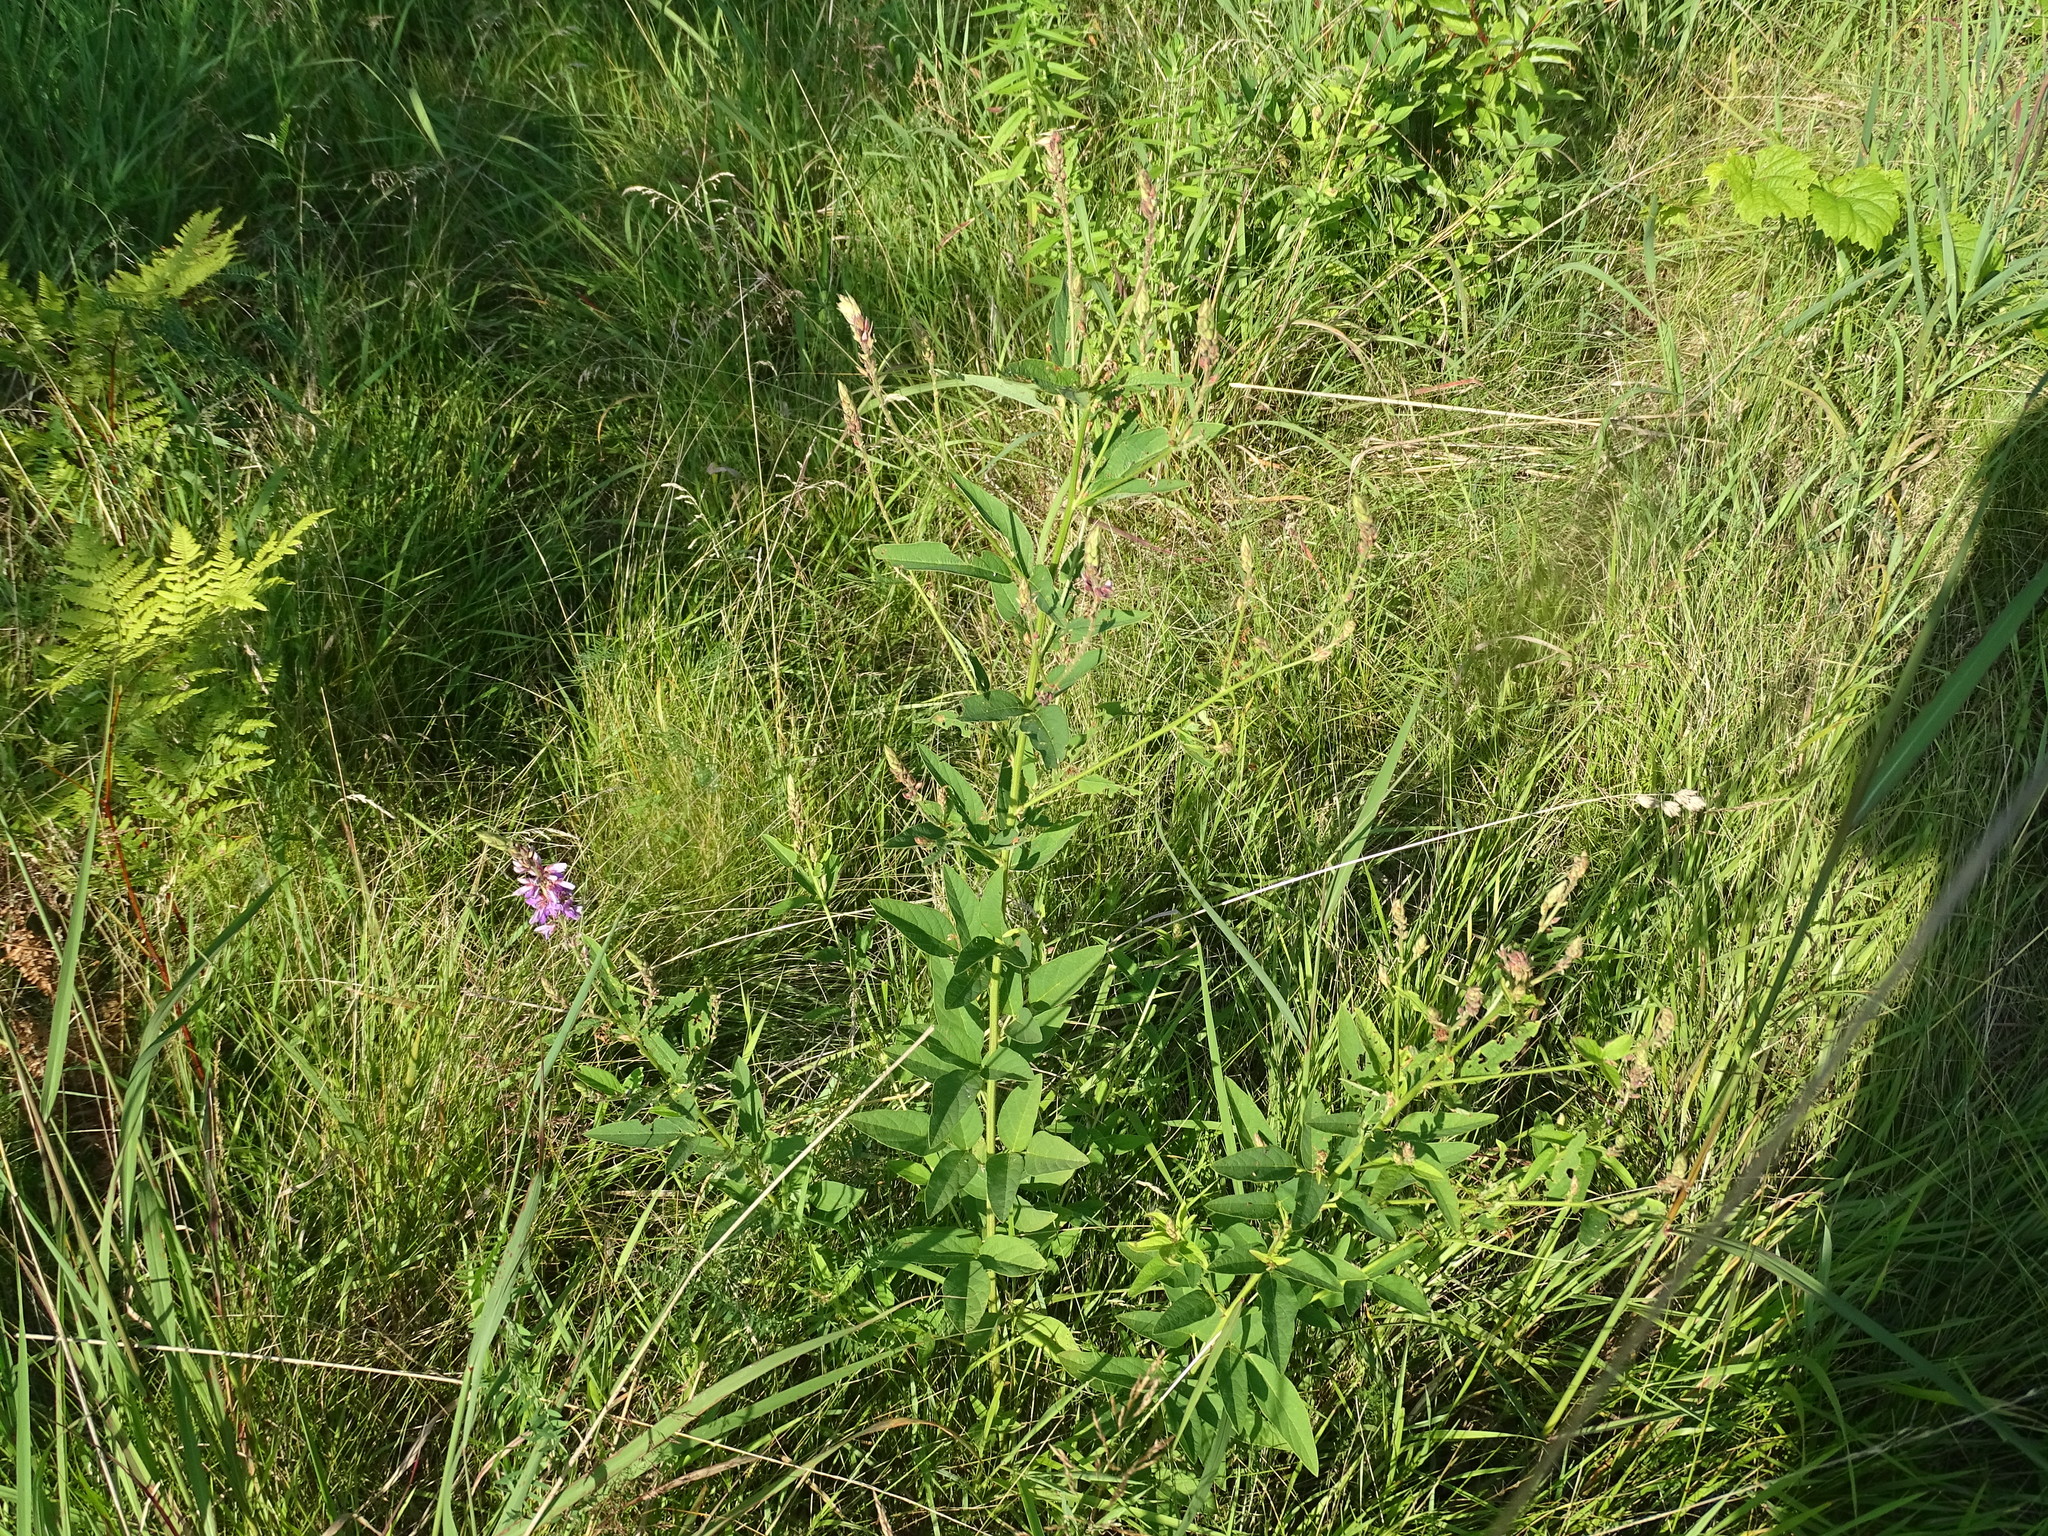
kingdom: Plantae
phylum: Tracheophyta
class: Magnoliopsida
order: Fabales
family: Fabaceae
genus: Desmodium
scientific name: Desmodium canadense
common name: Canada tick-trefoil
